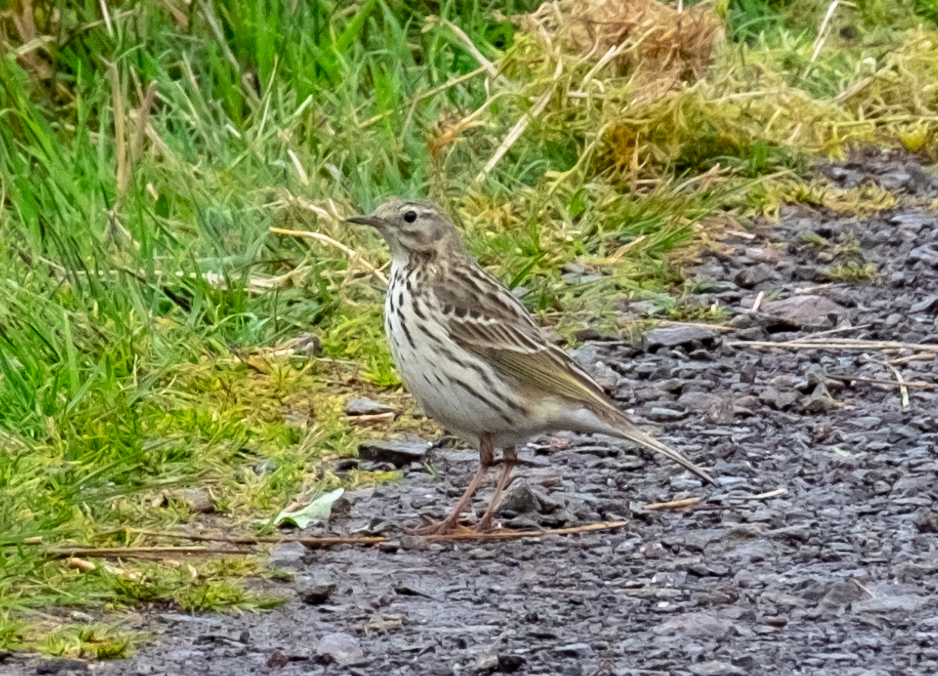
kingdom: Animalia
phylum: Chordata
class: Aves
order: Passeriformes
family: Motacillidae
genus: Anthus
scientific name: Anthus pratensis
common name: Meadow pipit
